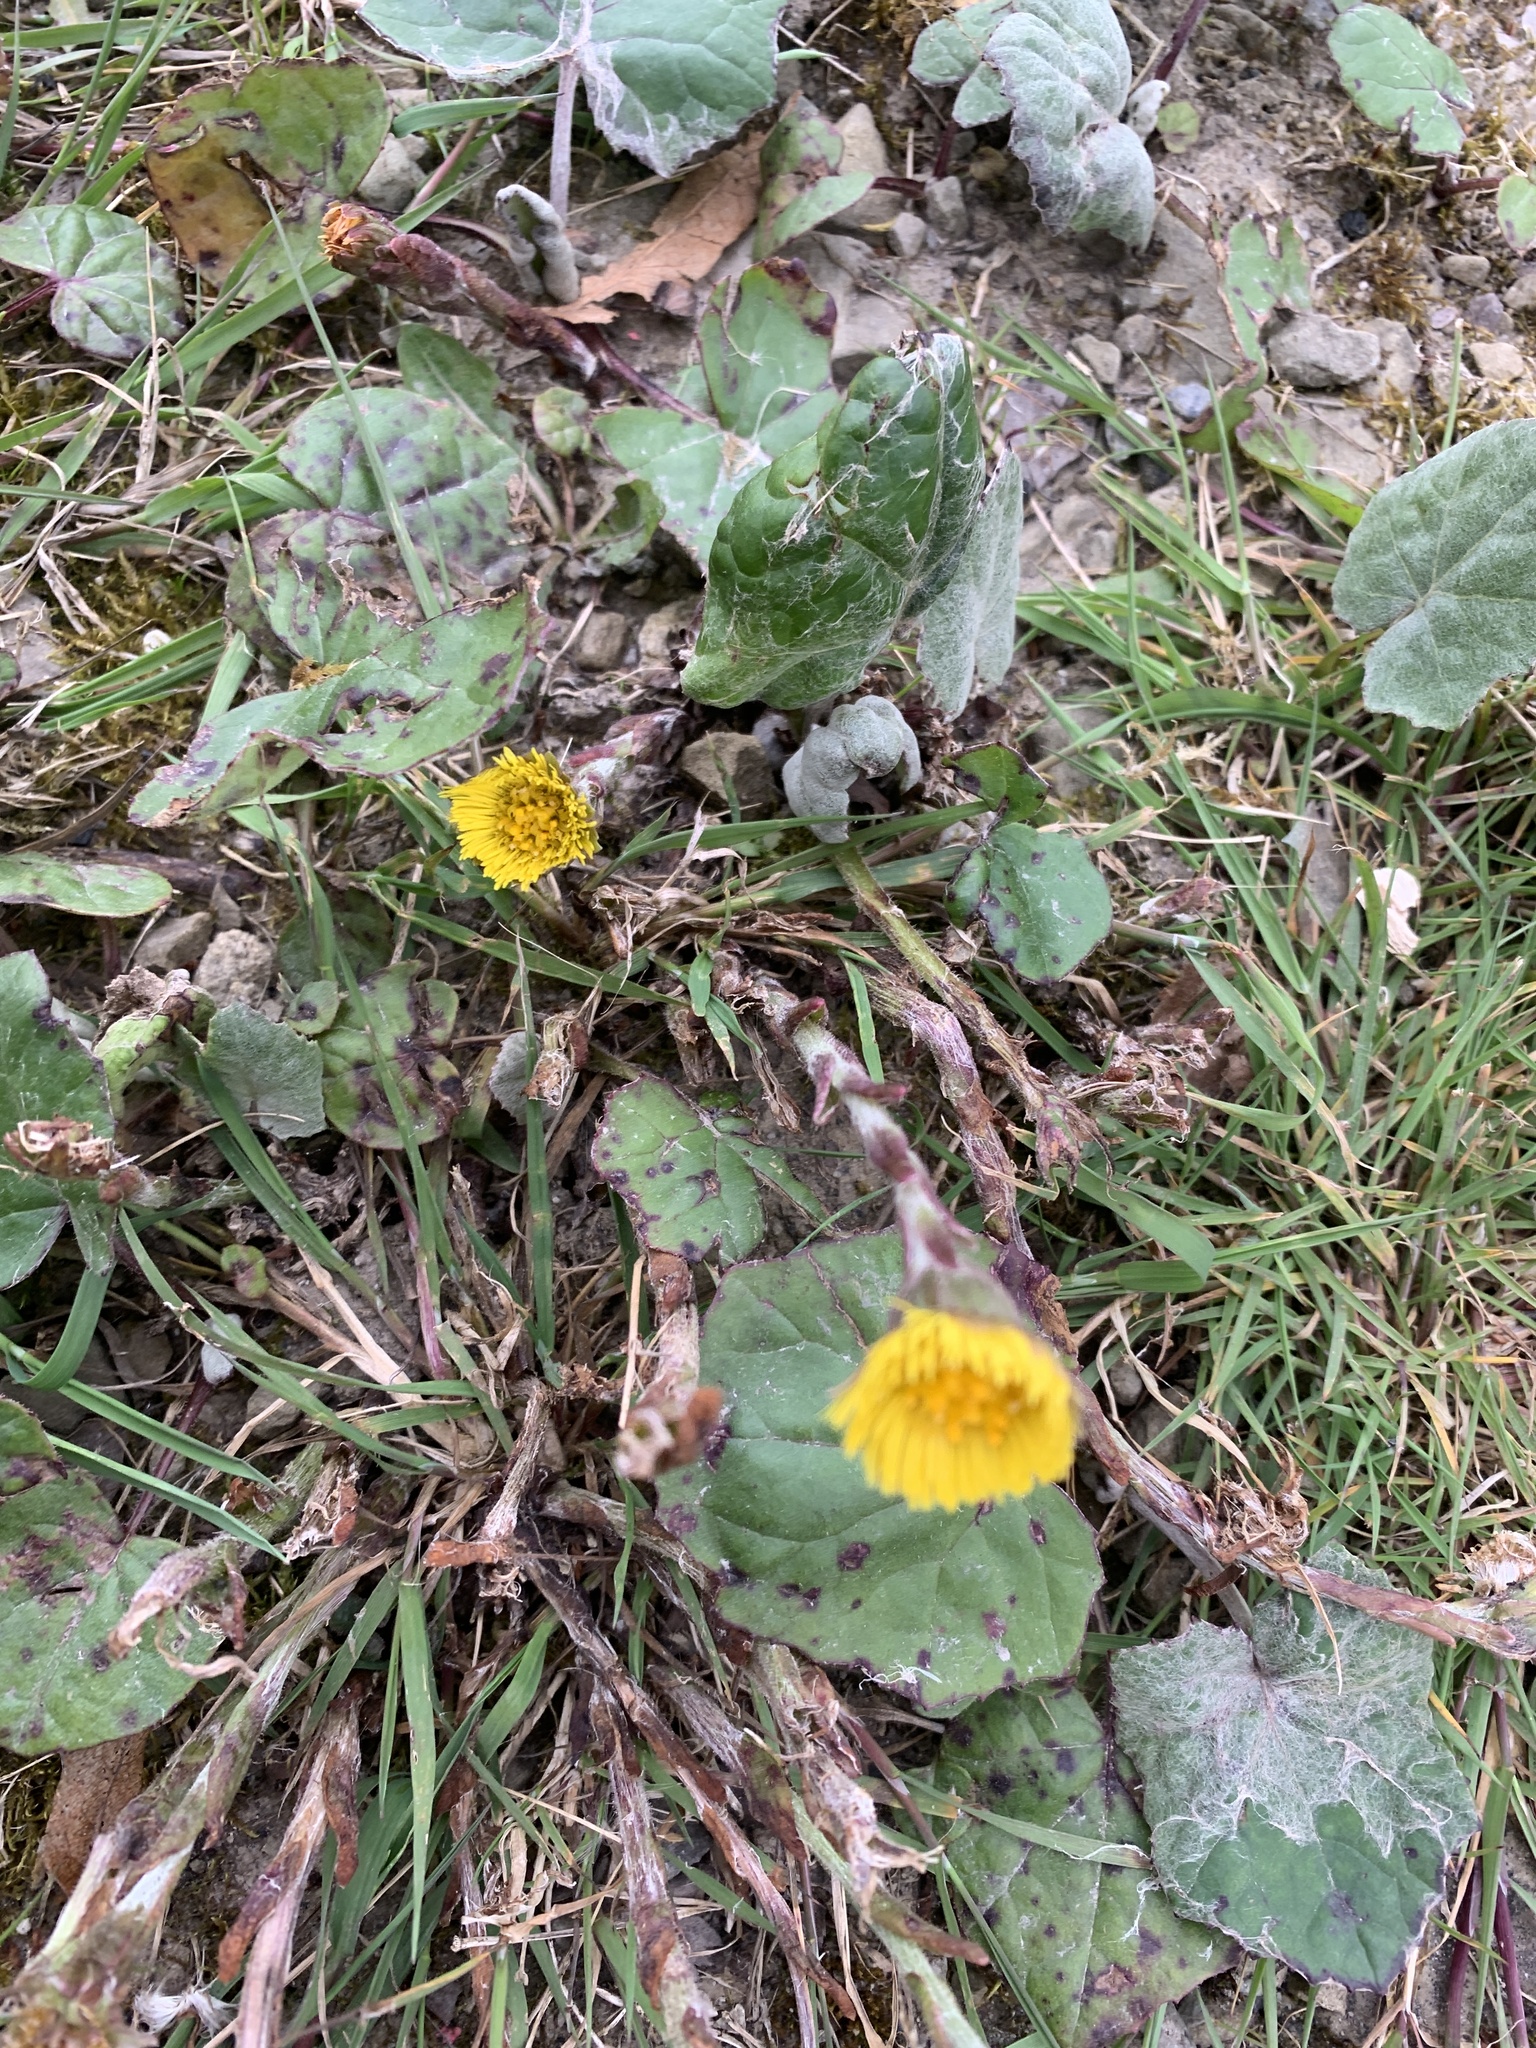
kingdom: Plantae
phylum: Tracheophyta
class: Magnoliopsida
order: Asterales
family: Asteraceae
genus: Tussilago
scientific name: Tussilago farfara
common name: Coltsfoot
